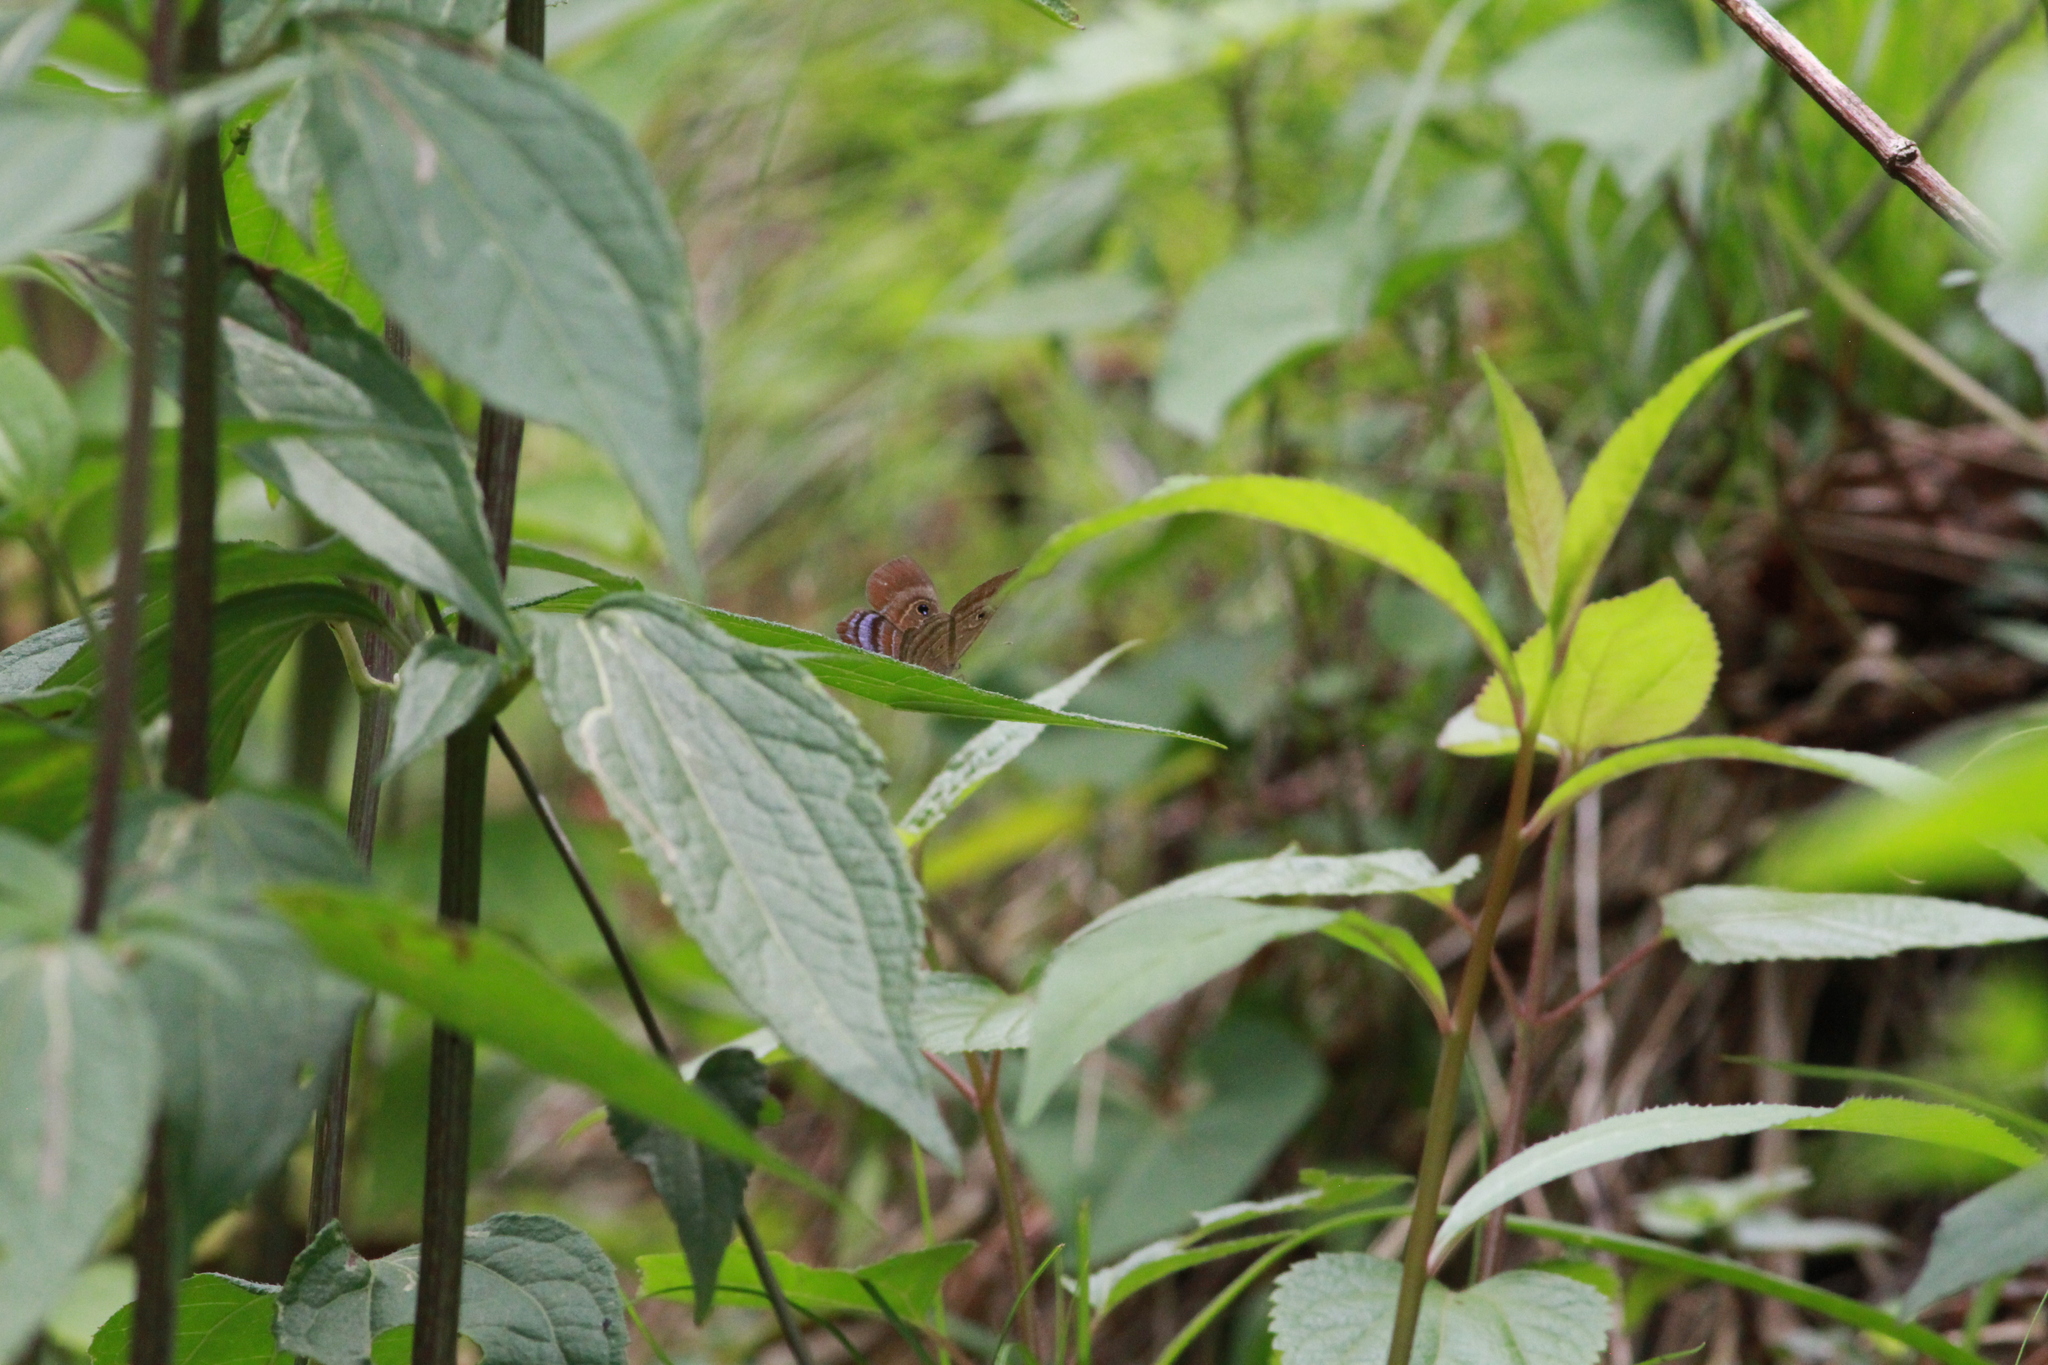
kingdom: Animalia
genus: Mesosemia
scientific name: Mesosemia lamachus
